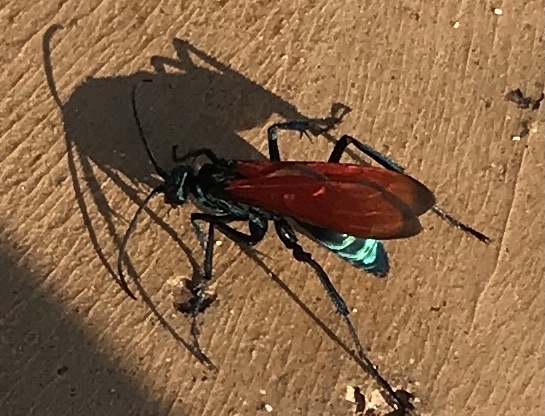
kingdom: Animalia
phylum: Arthropoda
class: Insecta
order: Hymenoptera
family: Pompilidae
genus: Pepsis
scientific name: Pepsis thisbe
